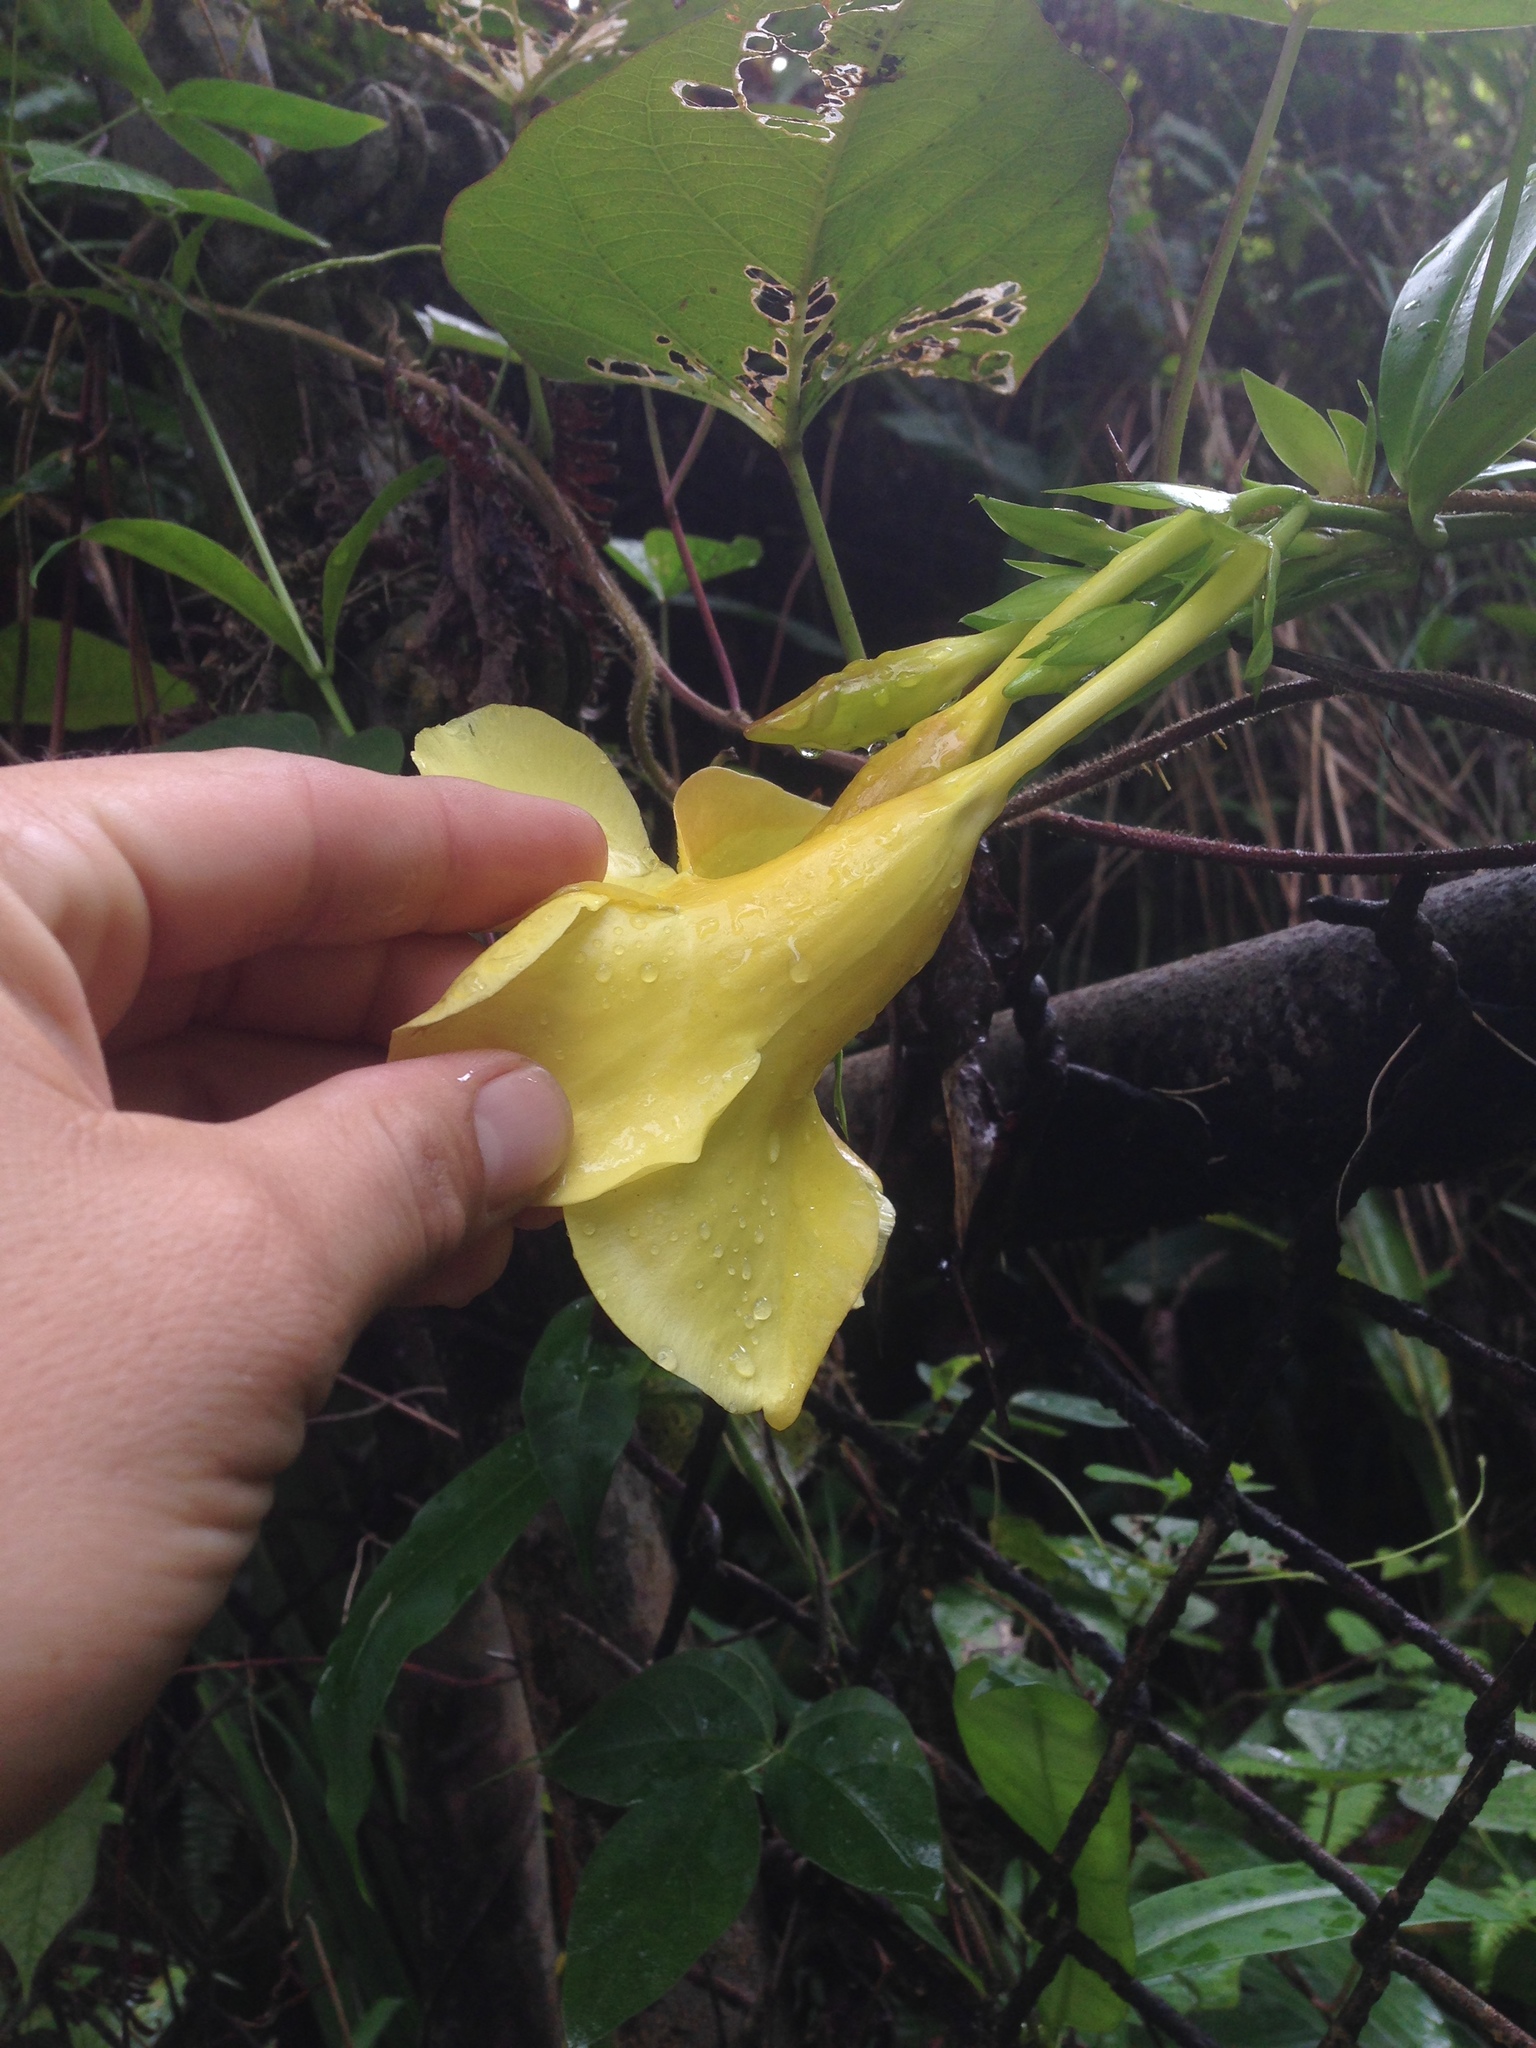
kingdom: Plantae
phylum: Tracheophyta
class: Magnoliopsida
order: Gentianales
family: Apocynaceae
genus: Allamanda
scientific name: Allamanda cathartica
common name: Golden trumpet
